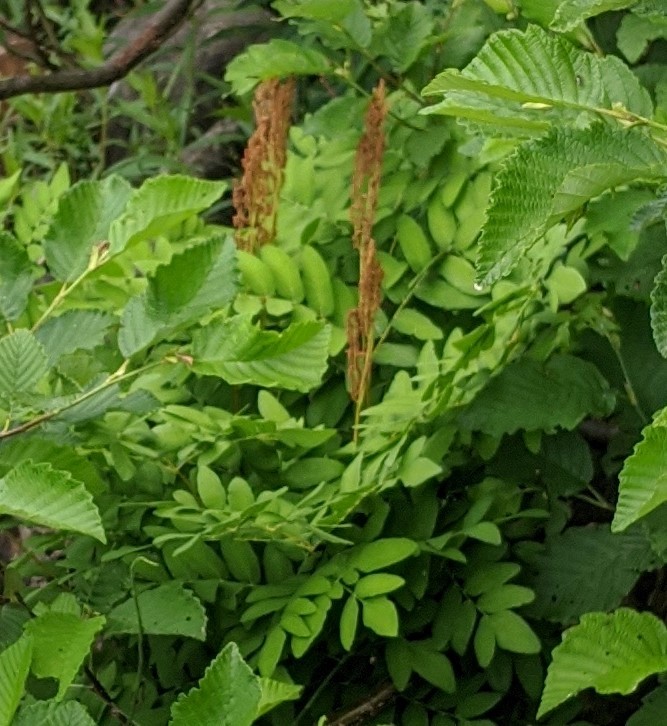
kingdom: Plantae
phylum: Tracheophyta
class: Polypodiopsida
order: Osmundales
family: Osmundaceae
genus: Osmundastrum
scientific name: Osmundastrum cinnamomeum
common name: Cinnamon fern
